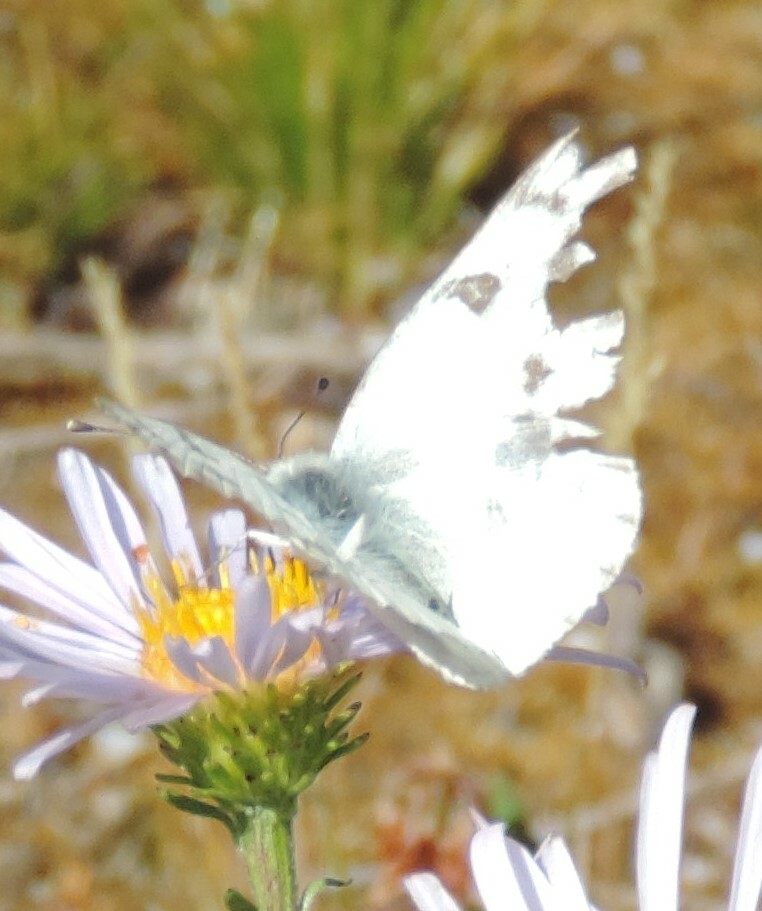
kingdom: Animalia
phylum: Arthropoda
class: Insecta
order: Lepidoptera
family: Pieridae
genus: Pontia
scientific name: Pontia occidentalis
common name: Western white
